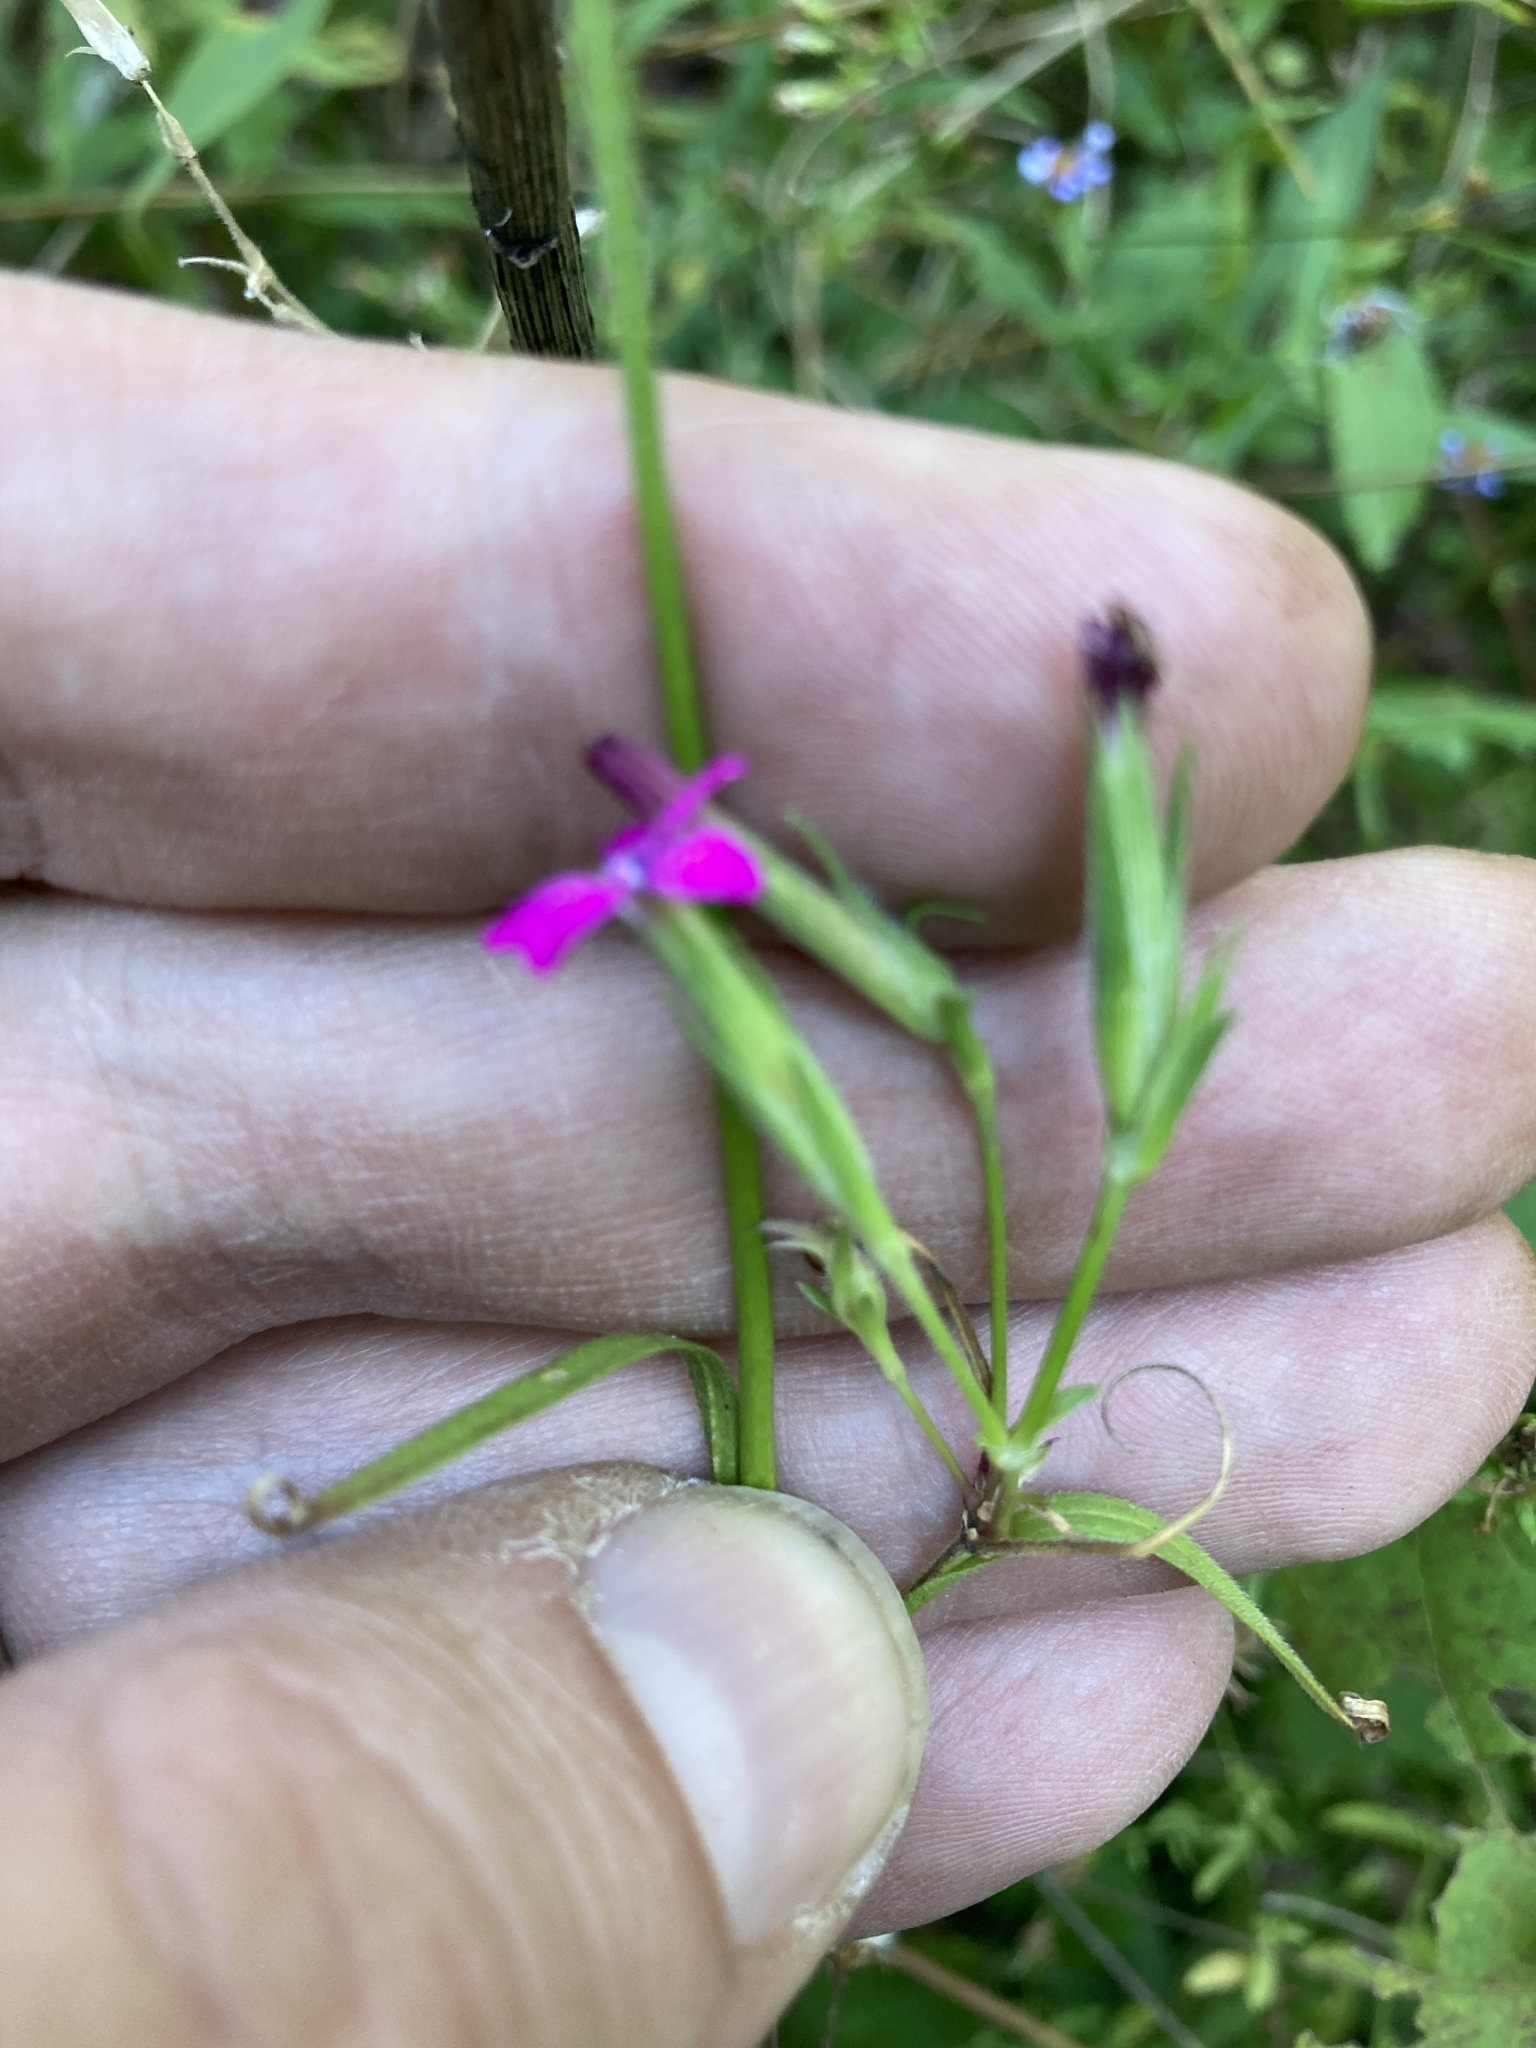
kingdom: Plantae
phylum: Tracheophyta
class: Magnoliopsida
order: Caryophyllales
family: Caryophyllaceae
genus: Dianthus
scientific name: Dianthus armeria
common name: Deptford pink
